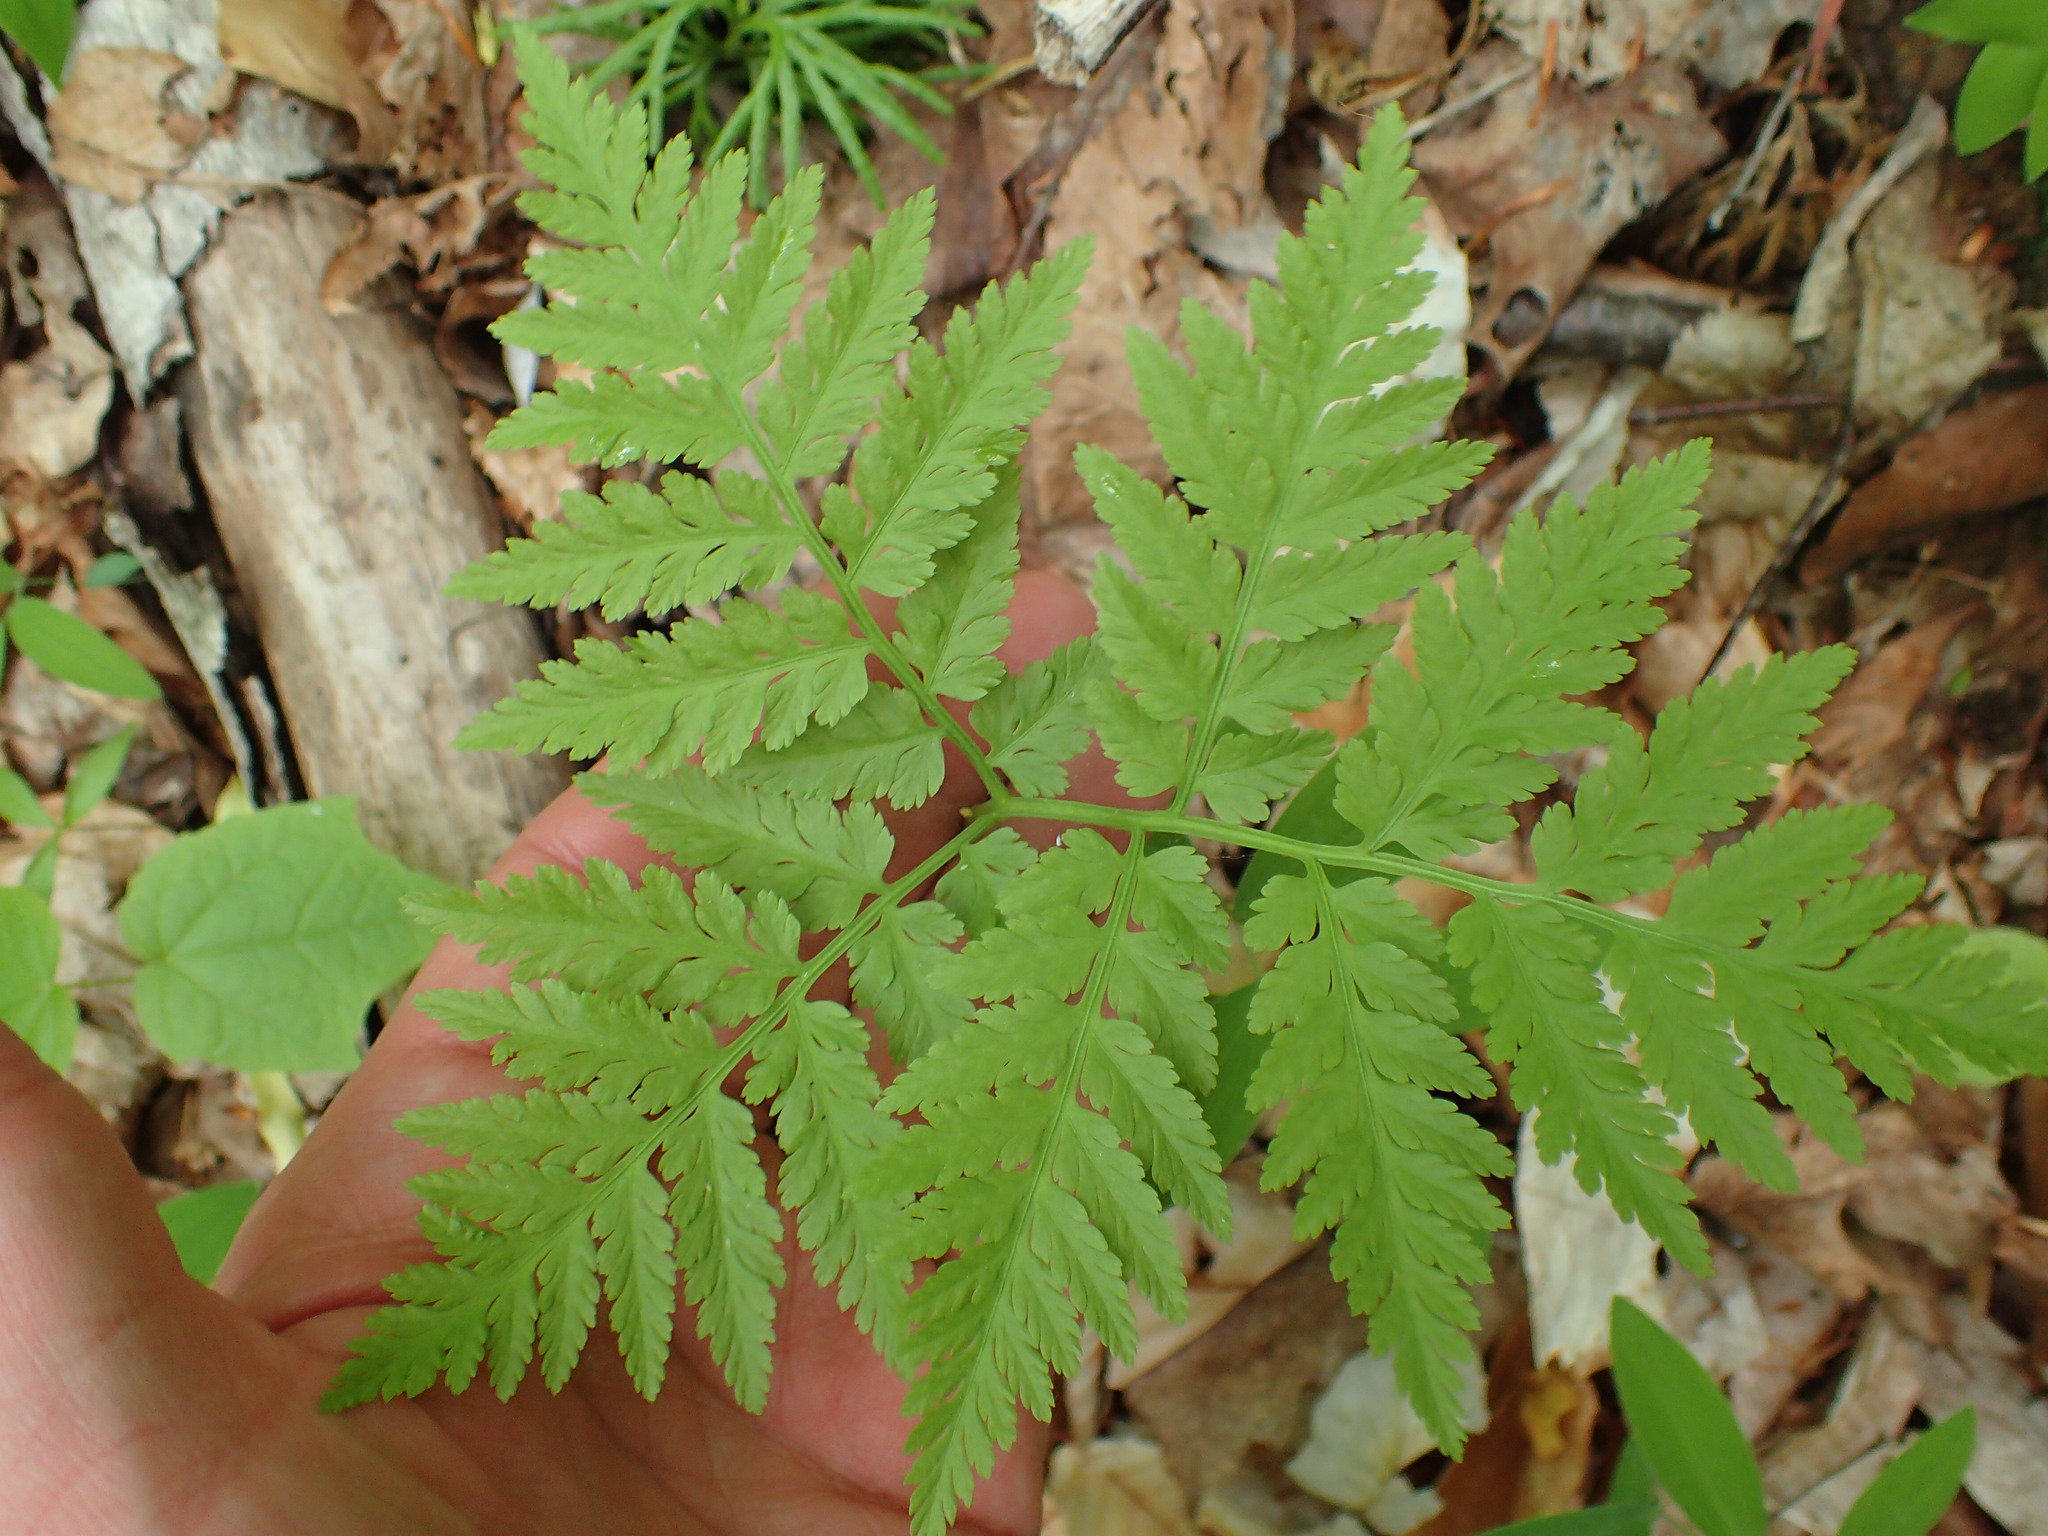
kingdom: Plantae
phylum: Tracheophyta
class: Polypodiopsida
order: Ophioglossales
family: Ophioglossaceae
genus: Botrypus
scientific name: Botrypus virginianus
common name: Common grapefern
